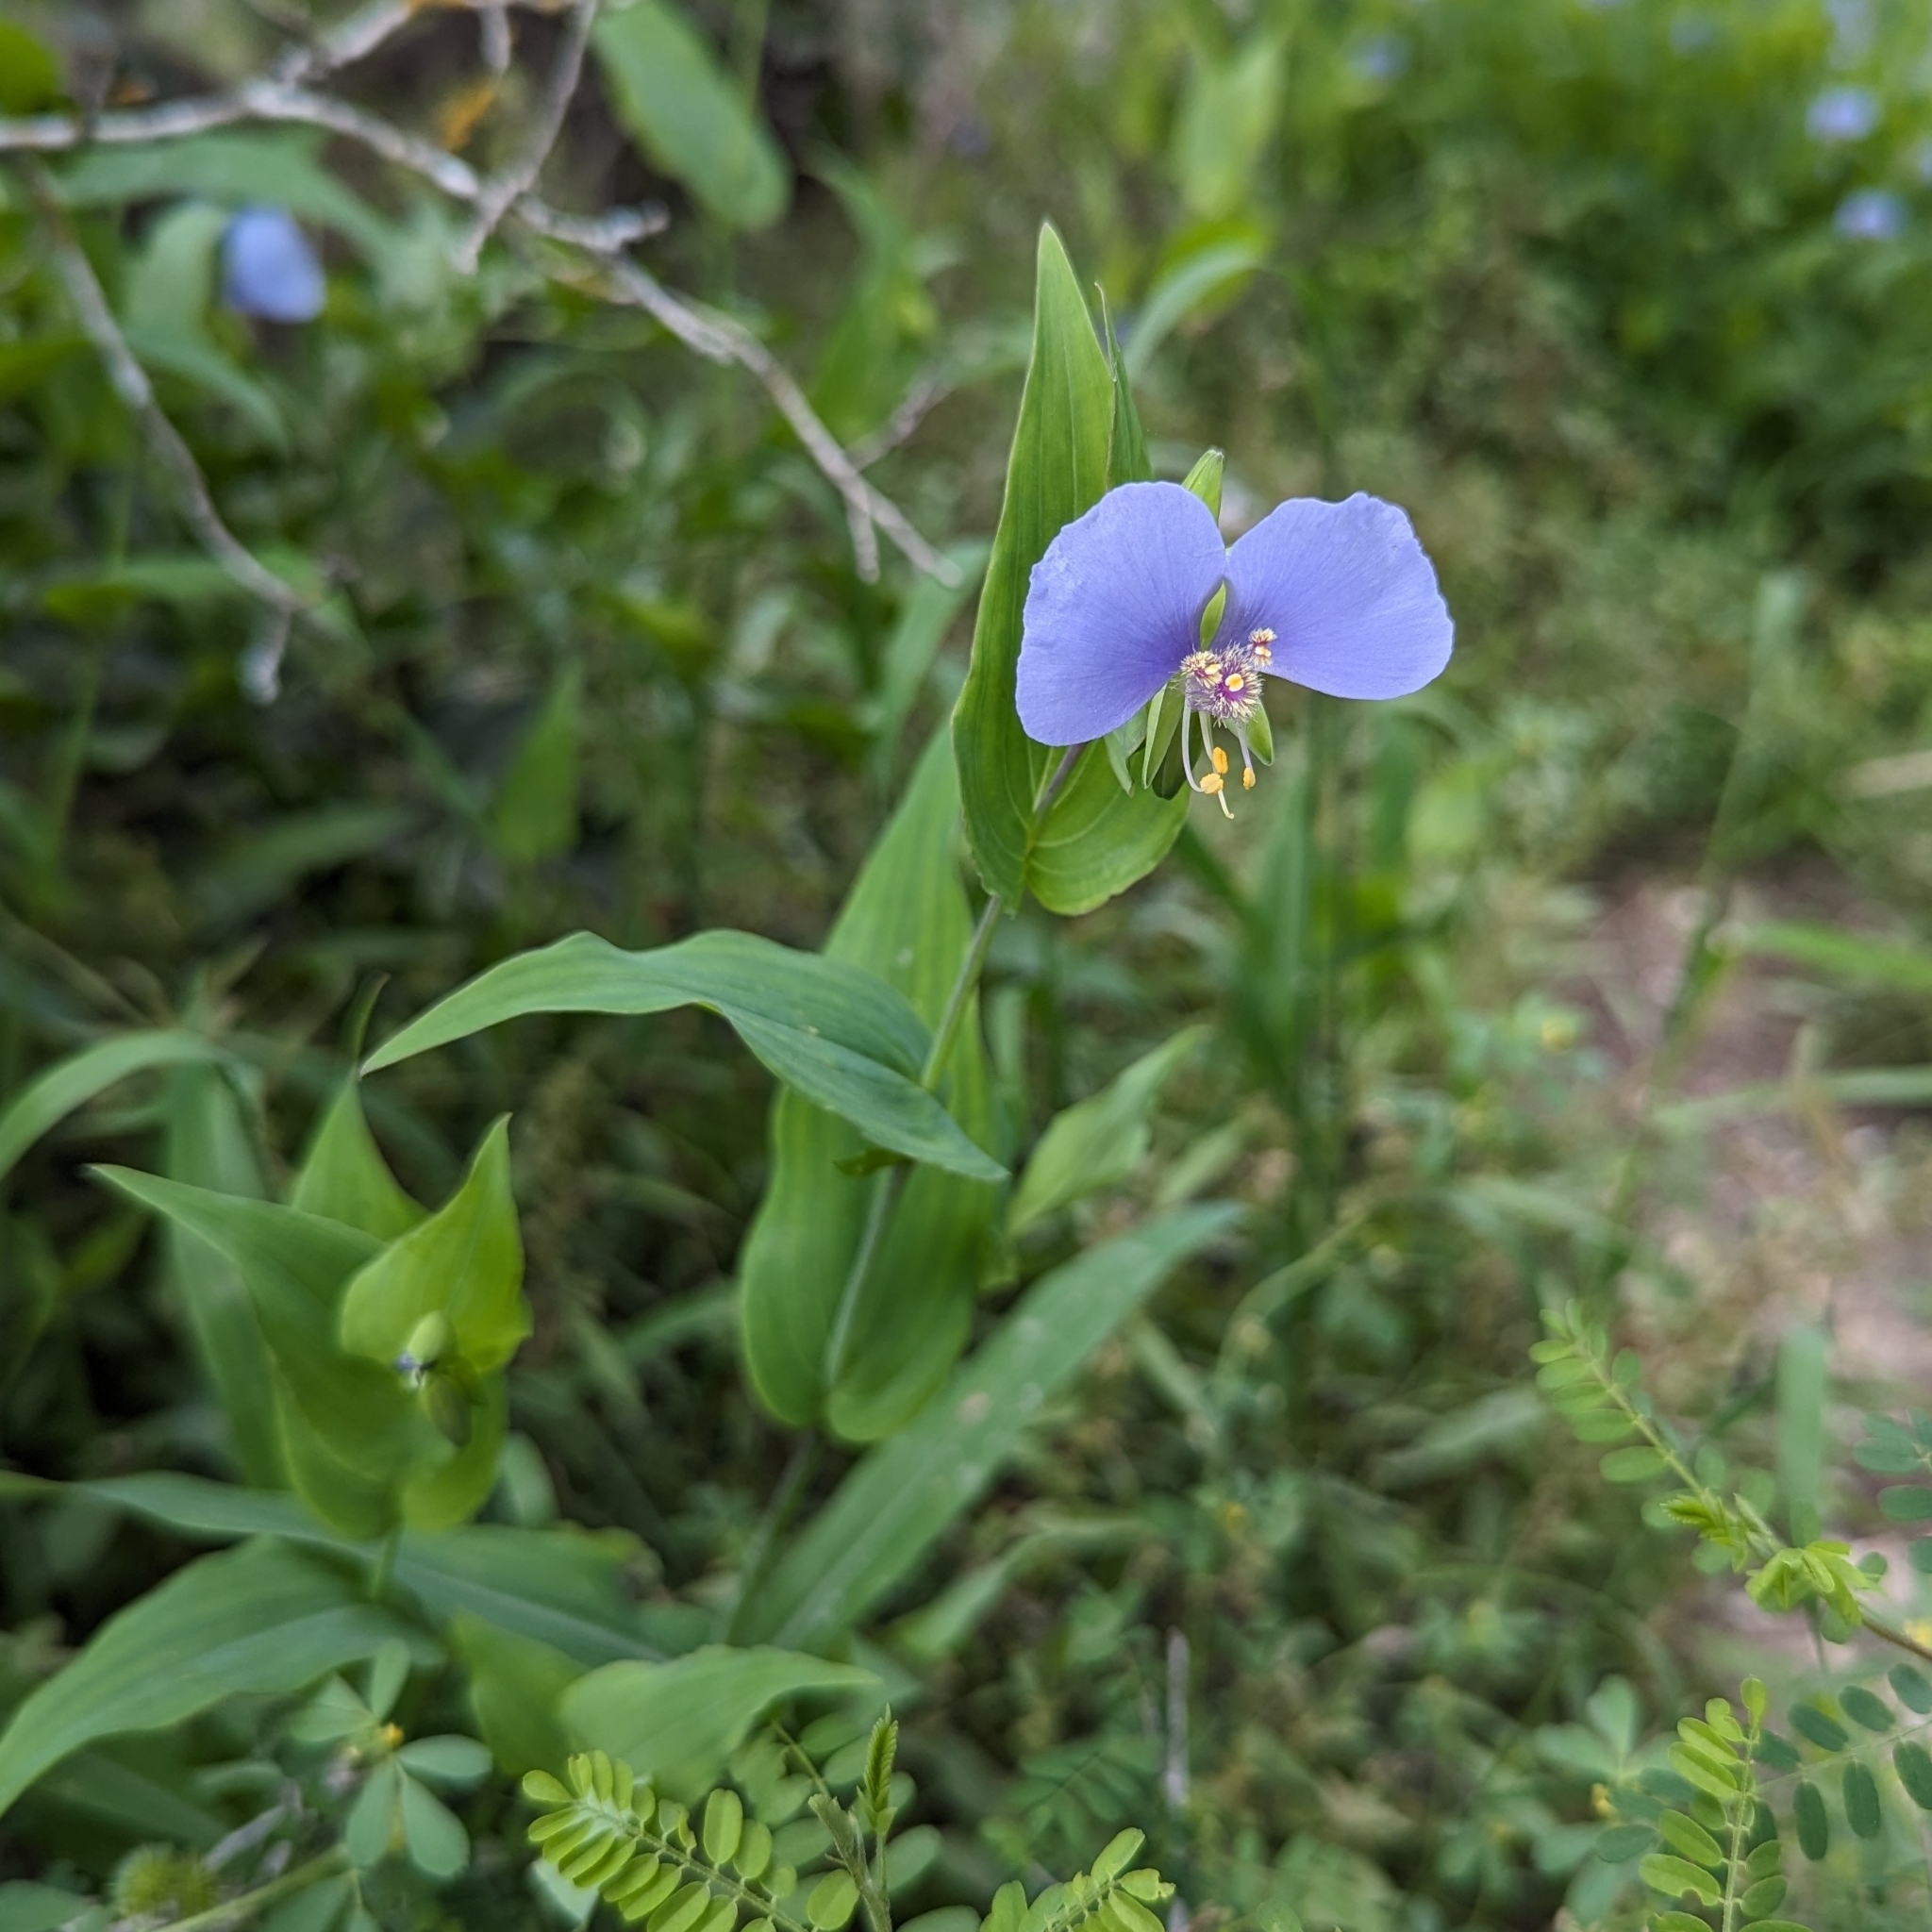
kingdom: Plantae
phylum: Tracheophyta
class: Liliopsida
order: Commelinales
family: Commelinaceae
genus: Tinantia
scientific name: Tinantia anomala
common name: False dayflower
